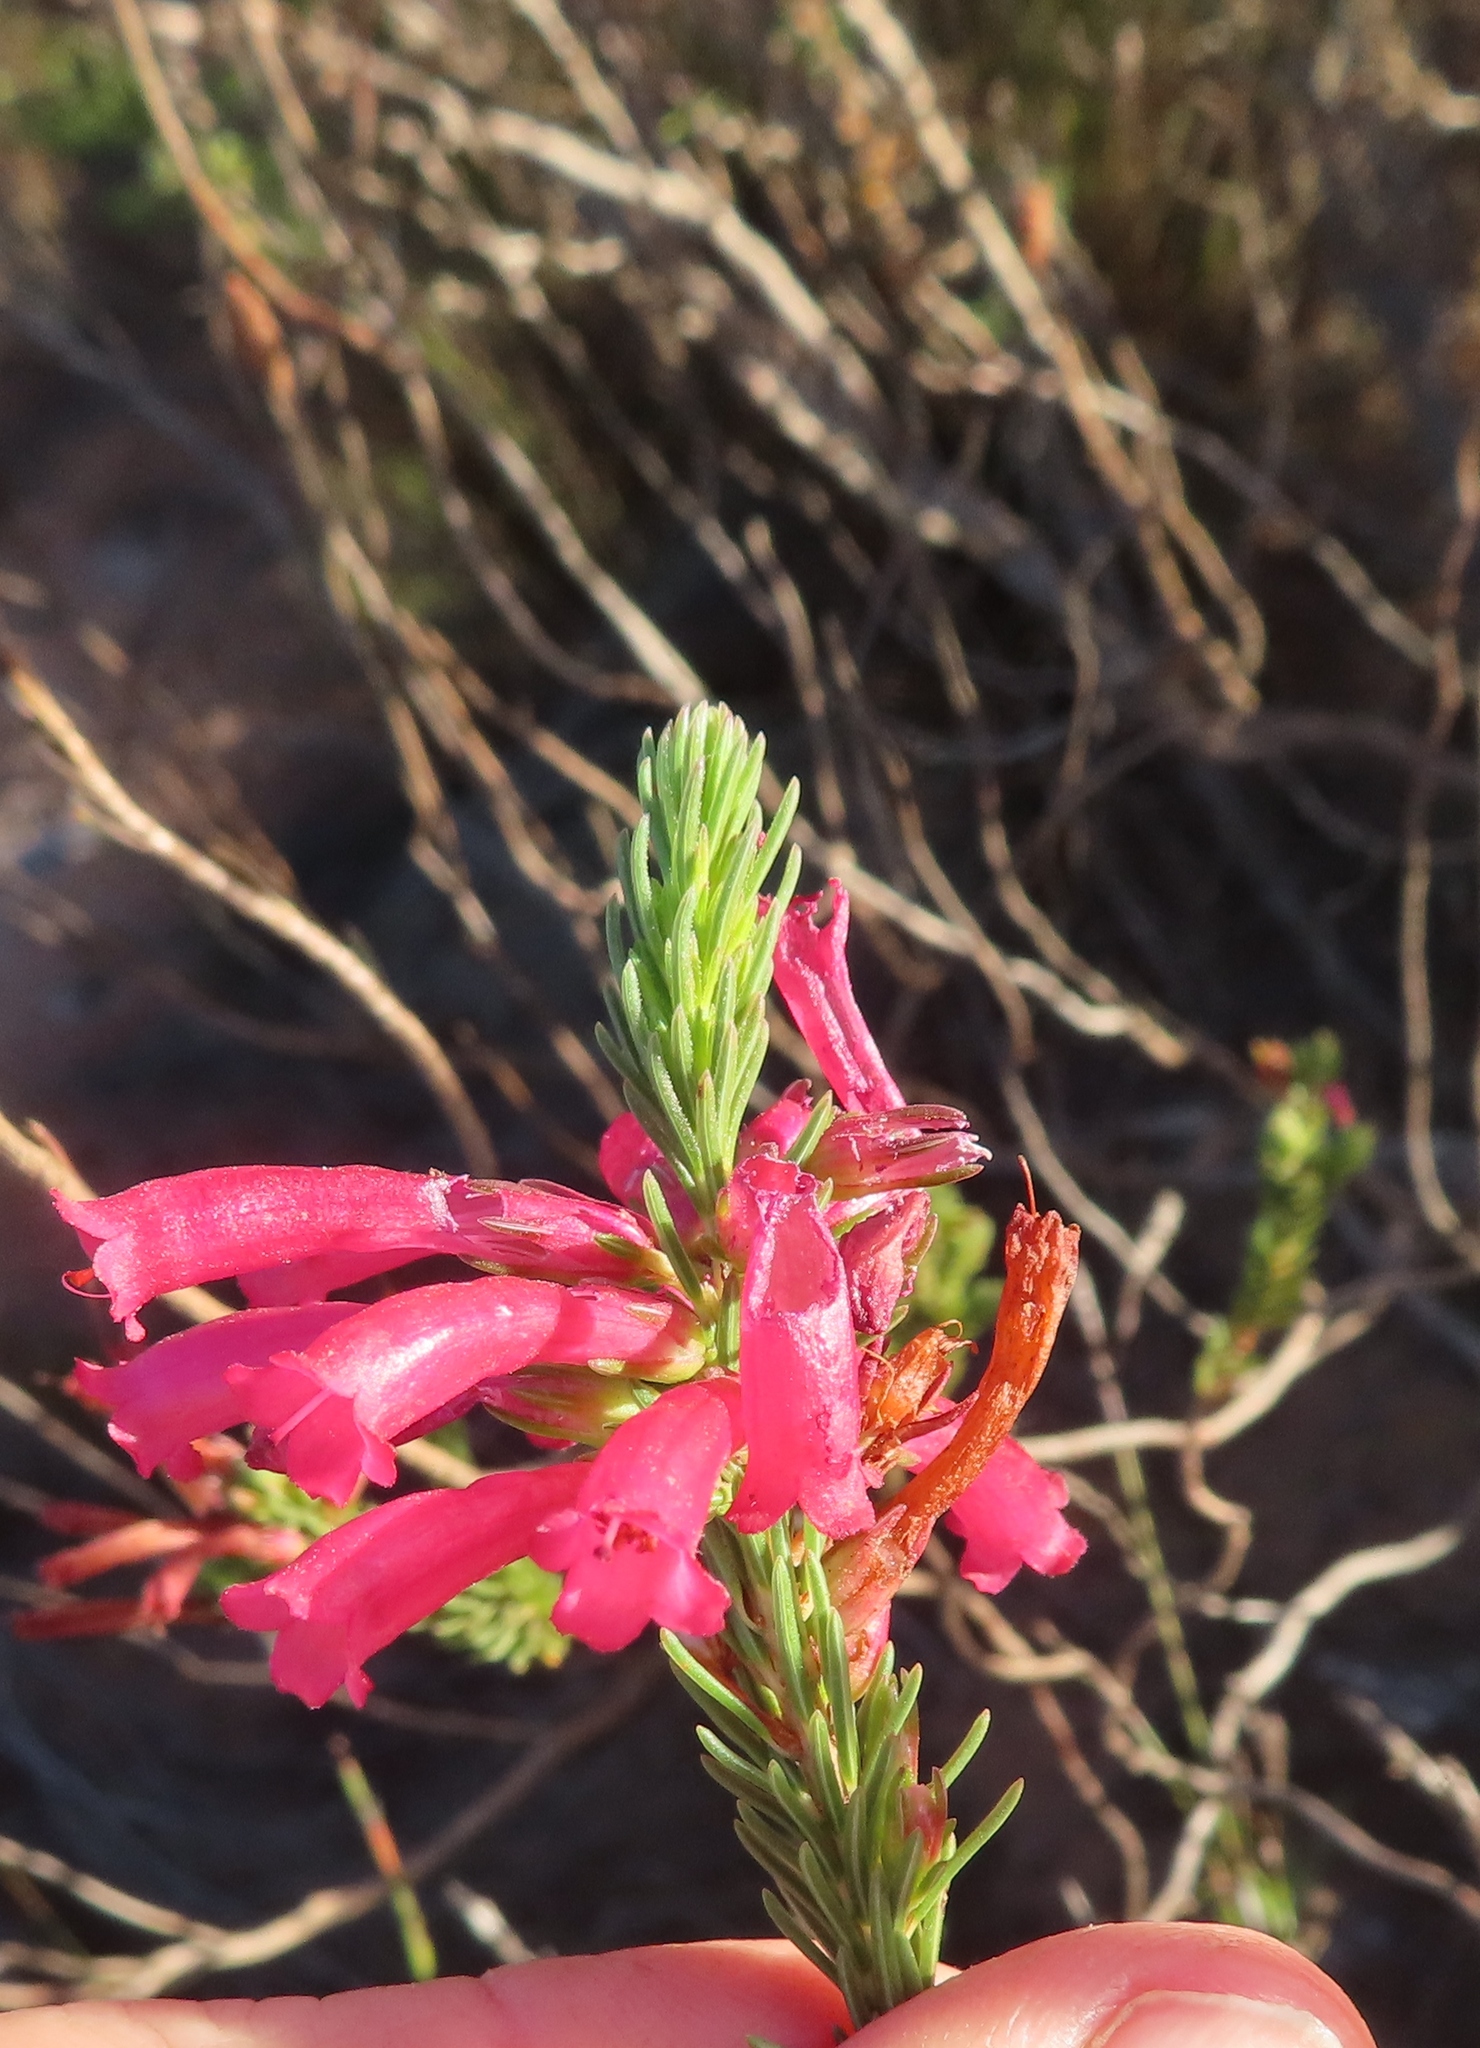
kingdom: Plantae
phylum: Tracheophyta
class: Magnoliopsida
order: Ericales
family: Ericaceae
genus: Erica
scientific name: Erica regia
